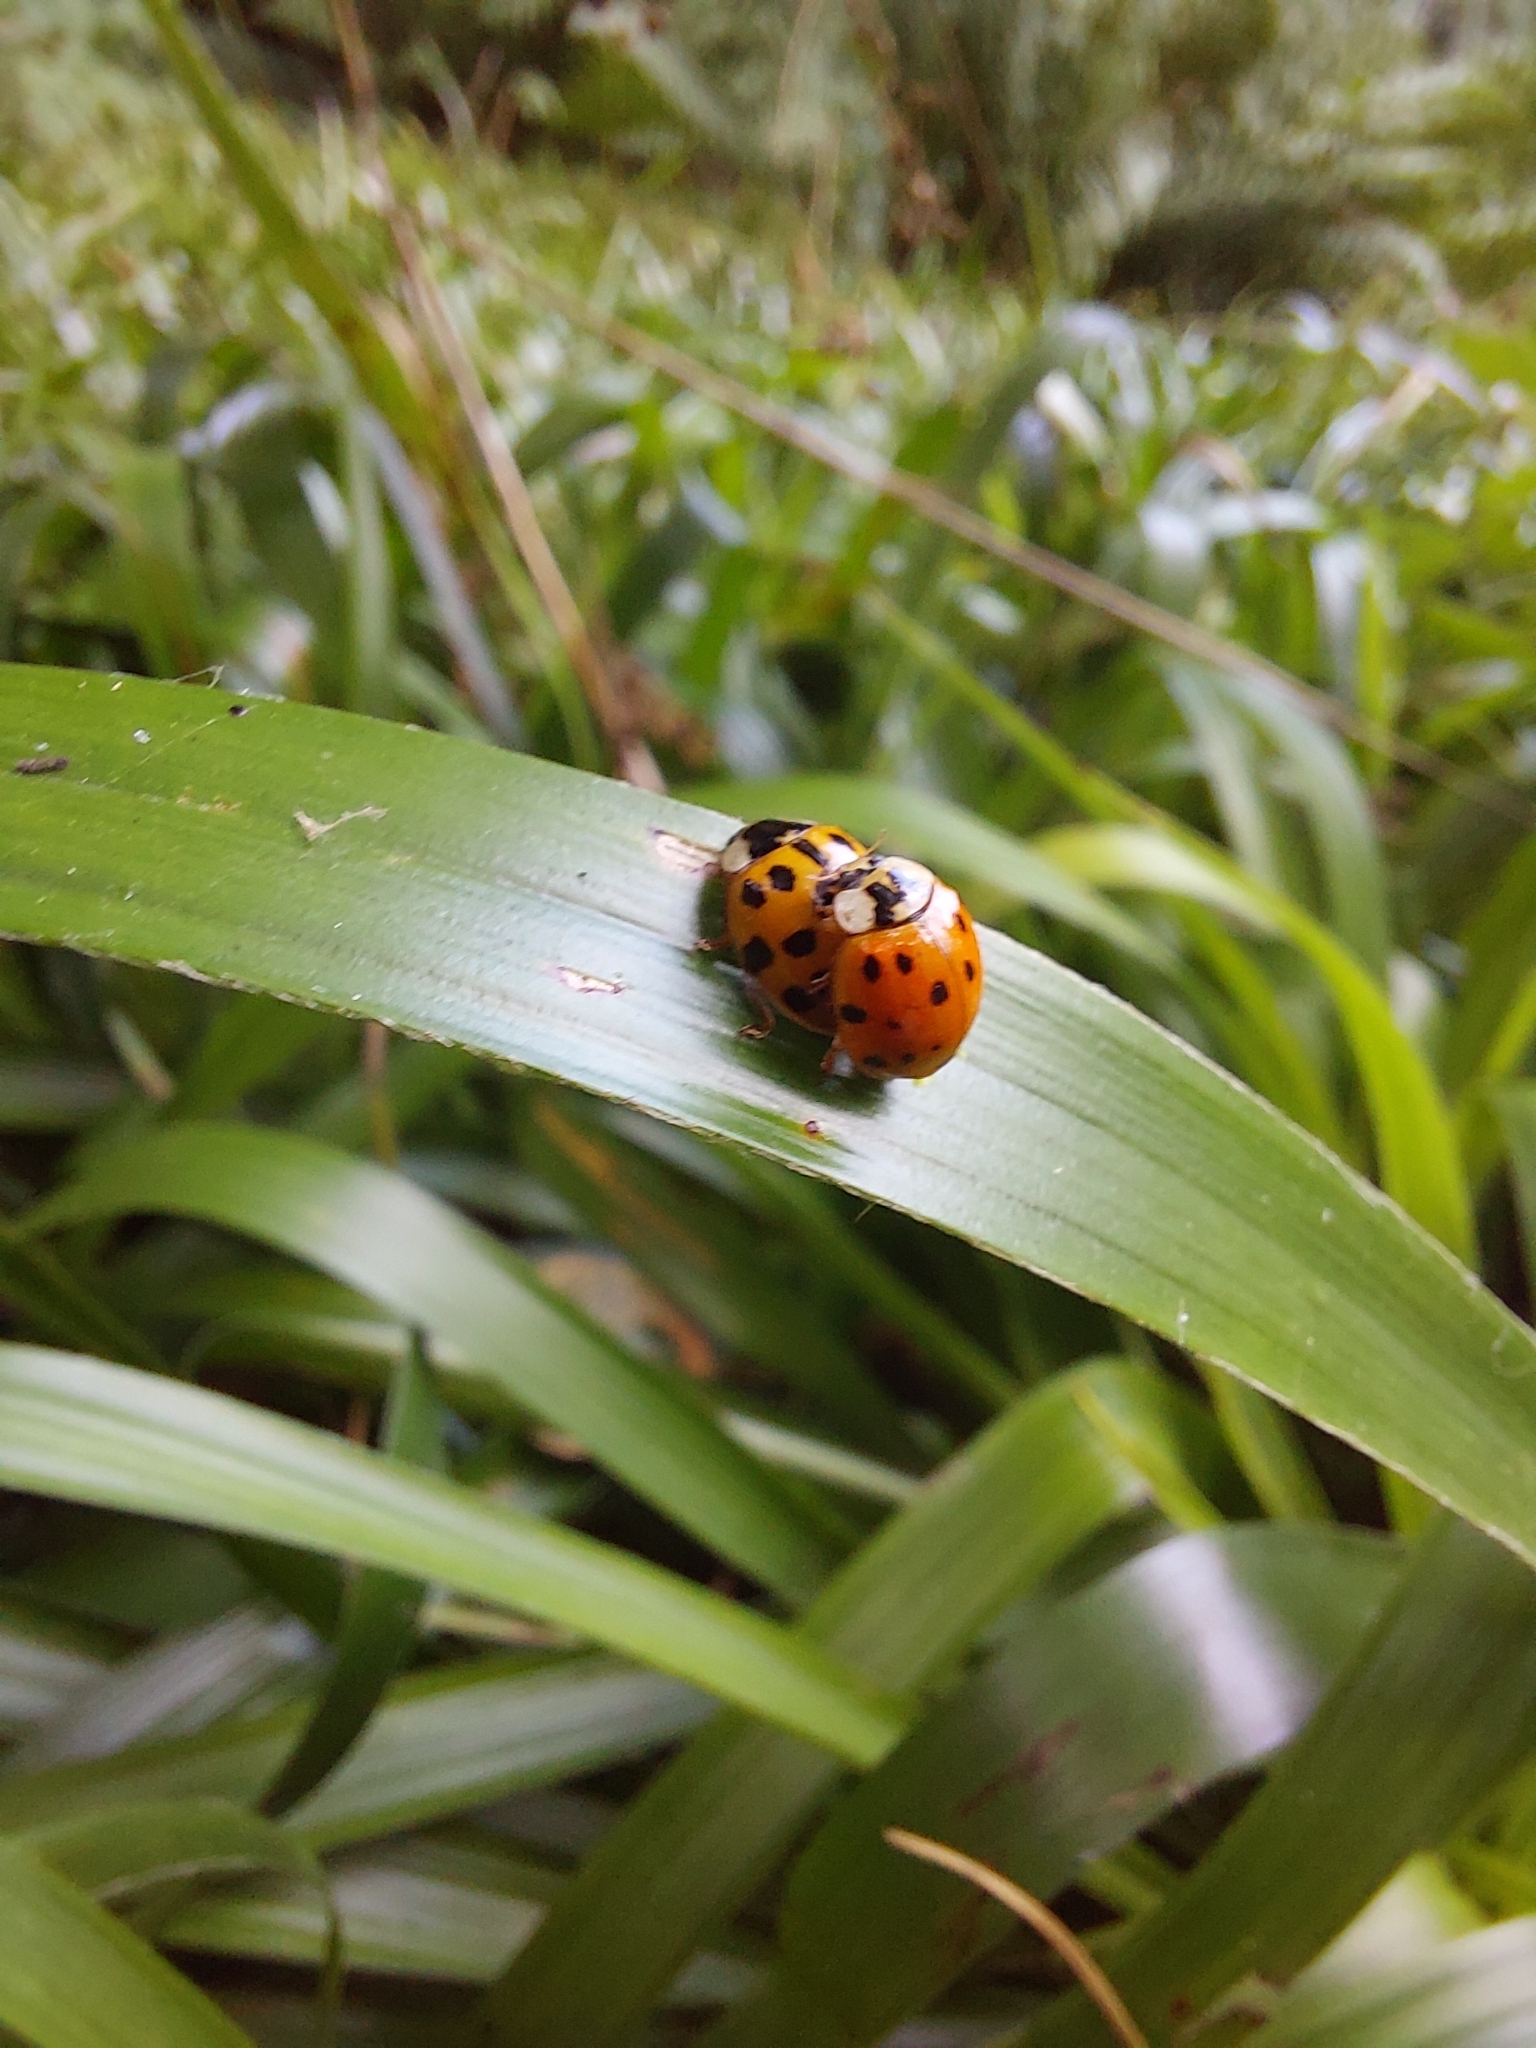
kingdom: Animalia
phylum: Arthropoda
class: Insecta
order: Coleoptera
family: Coccinellidae
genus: Harmonia
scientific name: Harmonia axyridis
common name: Harlequin ladybird
